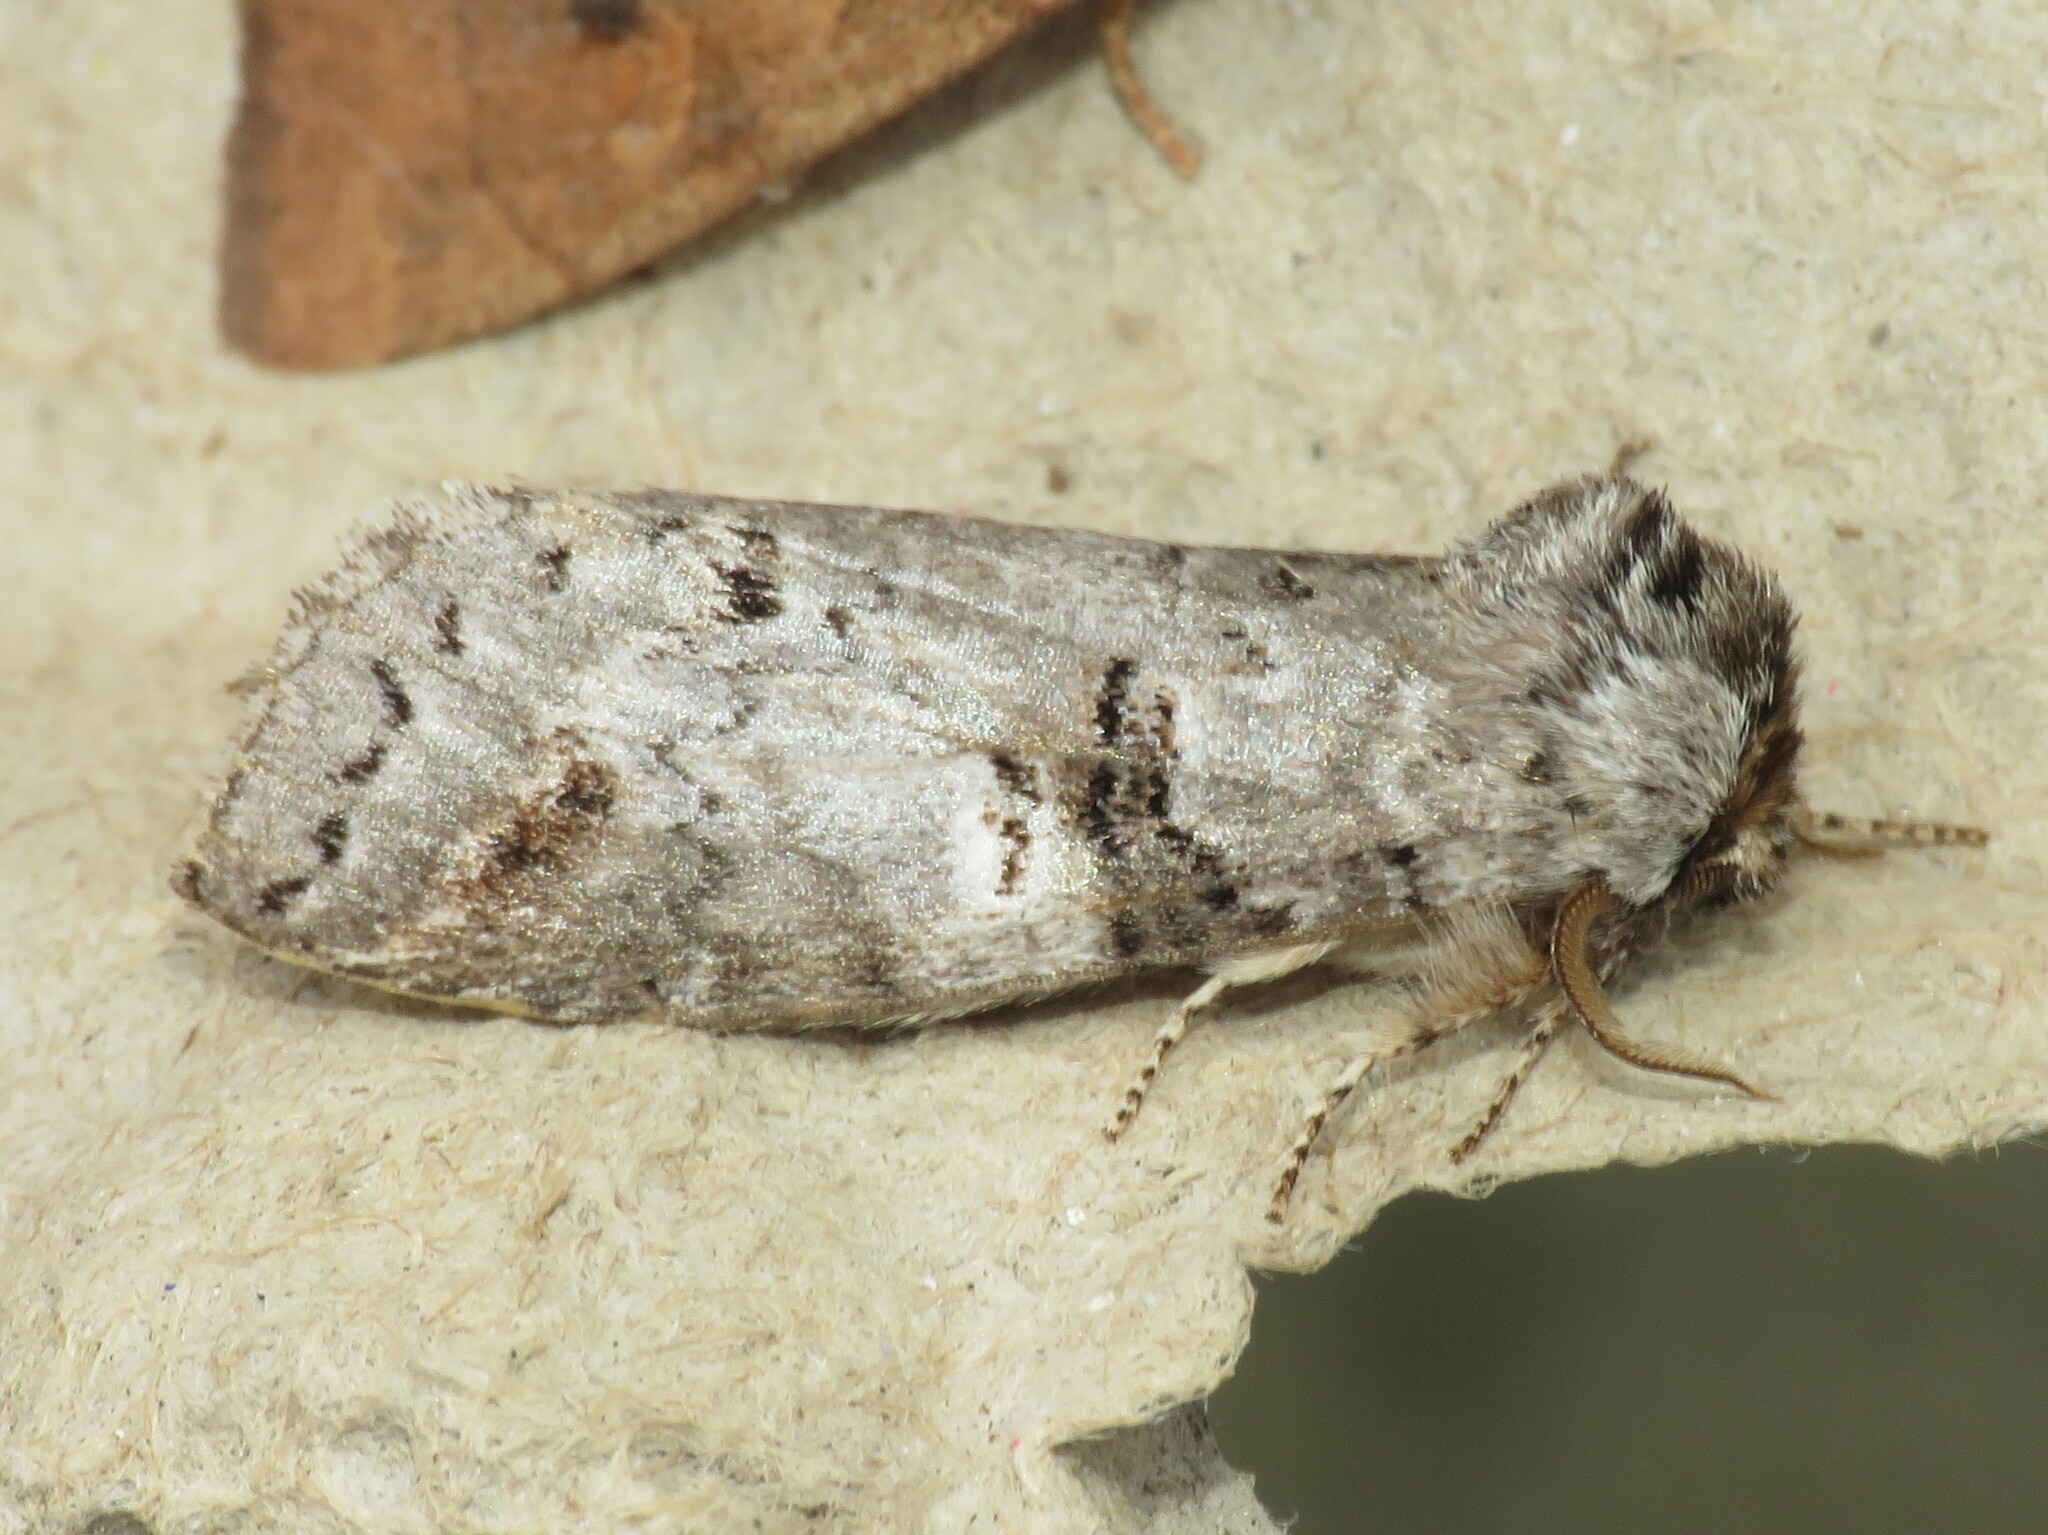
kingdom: Animalia
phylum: Arthropoda
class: Insecta
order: Lepidoptera
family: Notodontidae
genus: Ellida
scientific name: Ellida caniplaga
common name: Linden prominent
